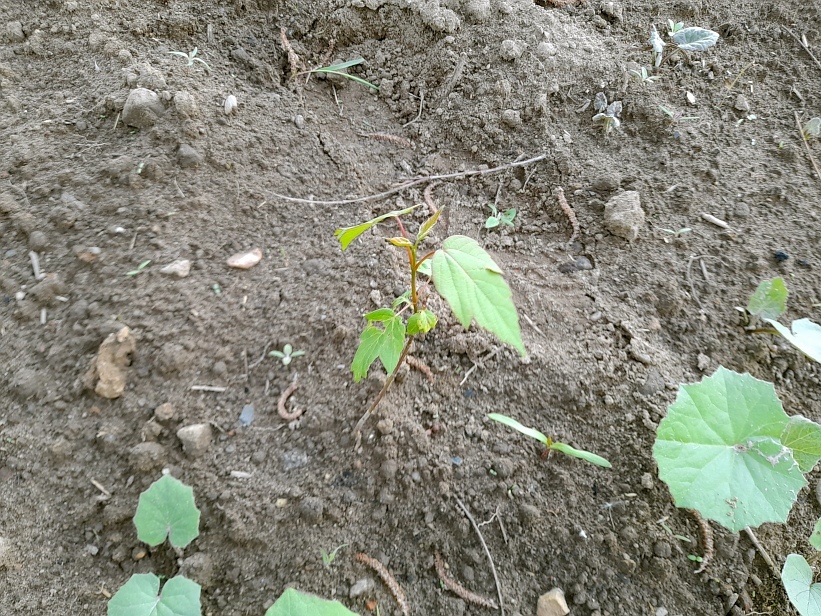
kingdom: Plantae
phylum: Tracheophyta
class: Magnoliopsida
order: Sapindales
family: Sapindaceae
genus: Acer
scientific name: Acer negundo
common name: Ashleaf maple
